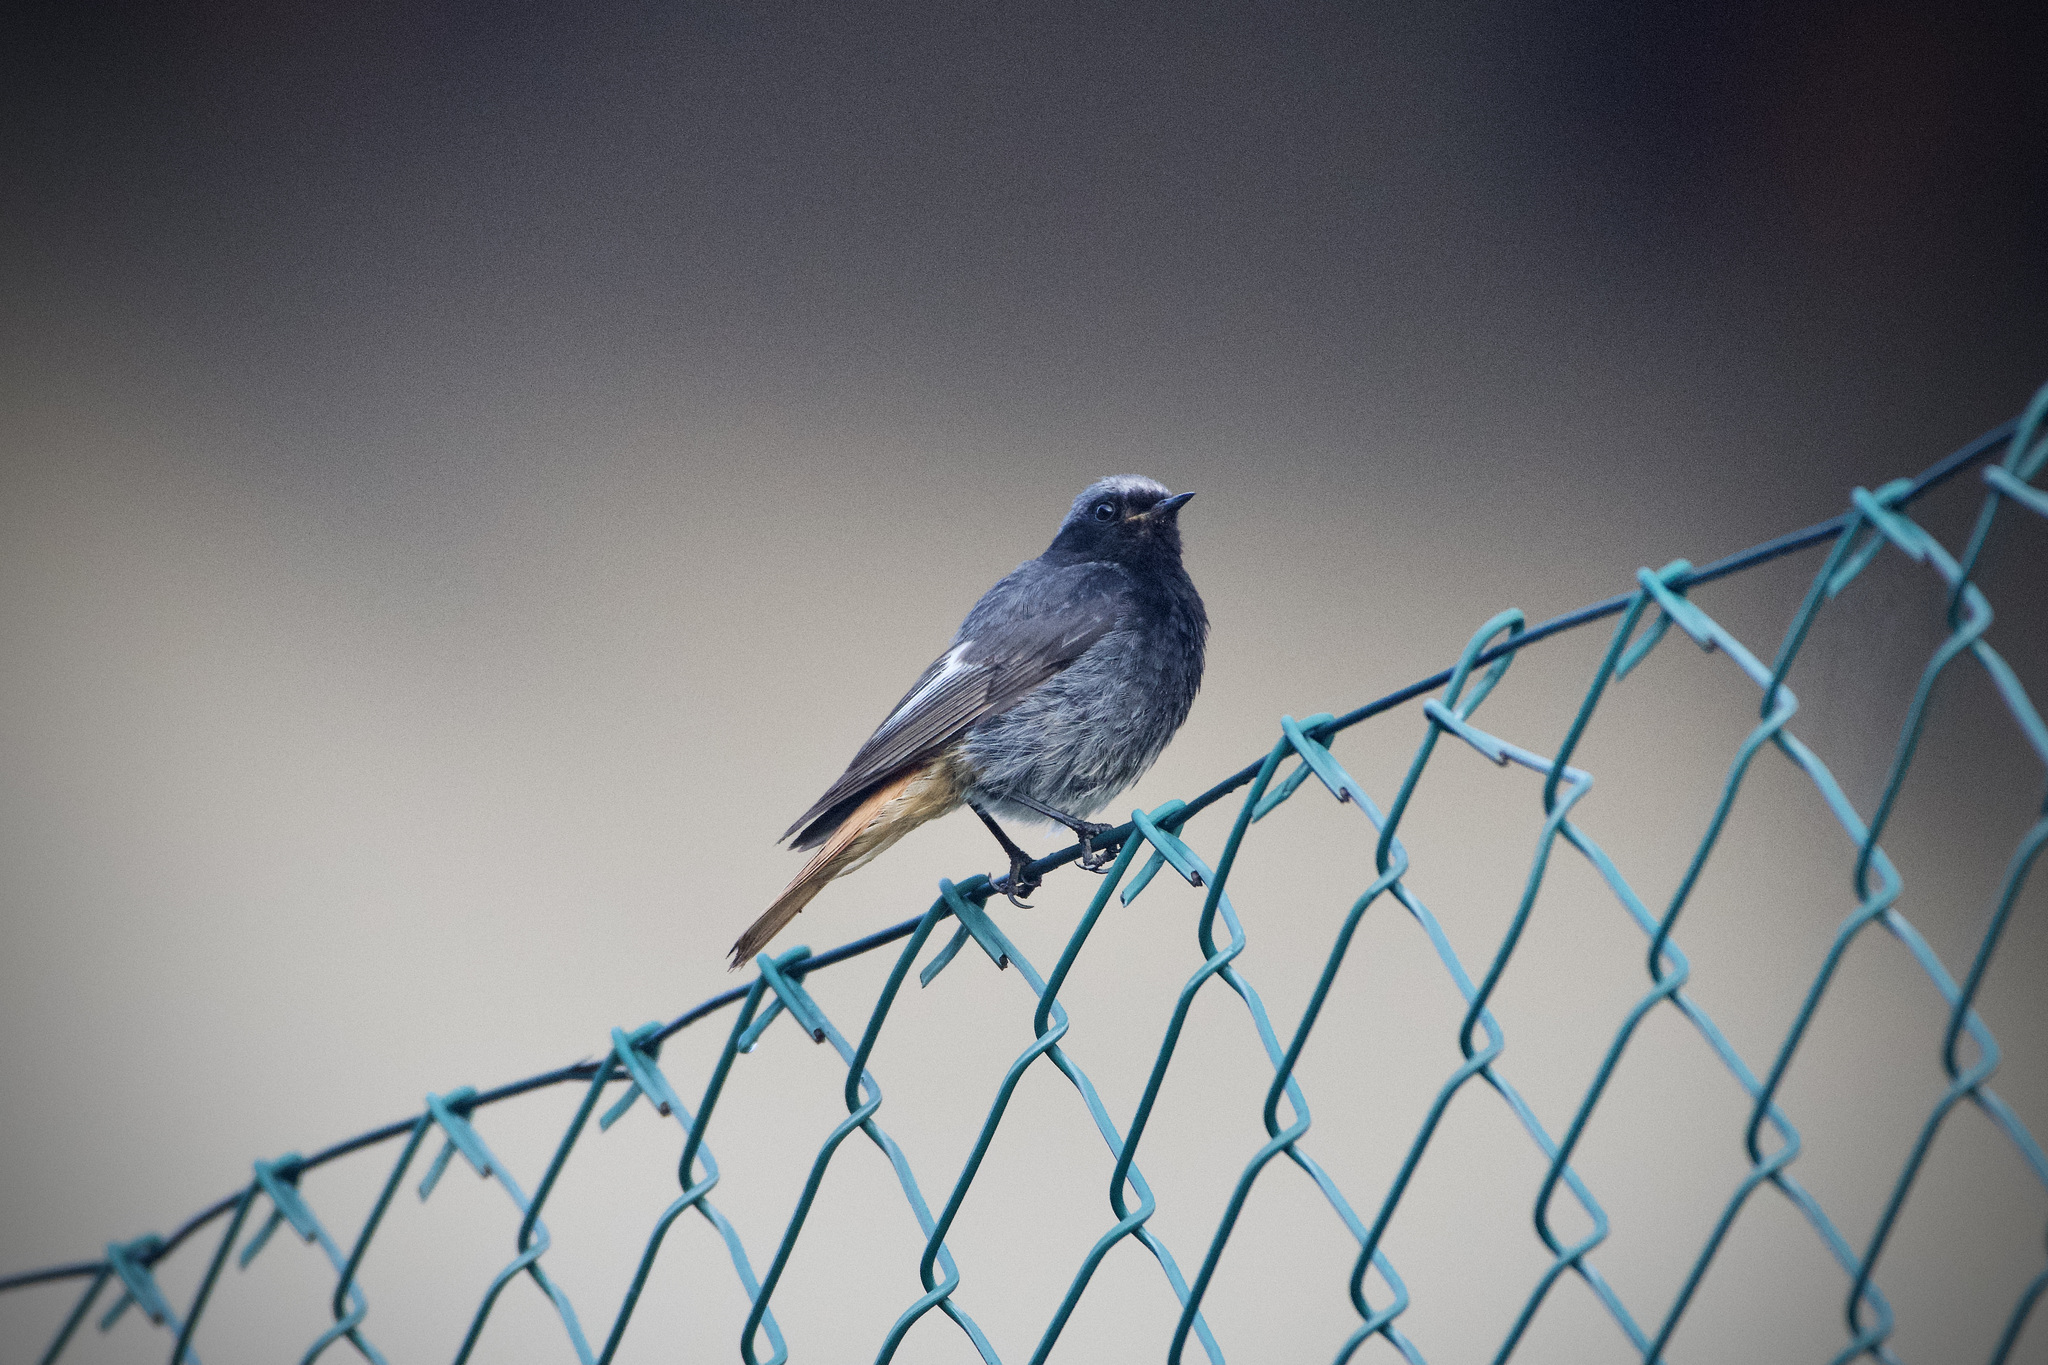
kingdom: Animalia
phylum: Chordata
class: Aves
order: Passeriformes
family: Muscicapidae
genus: Phoenicurus
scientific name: Phoenicurus ochruros
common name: Black redstart
